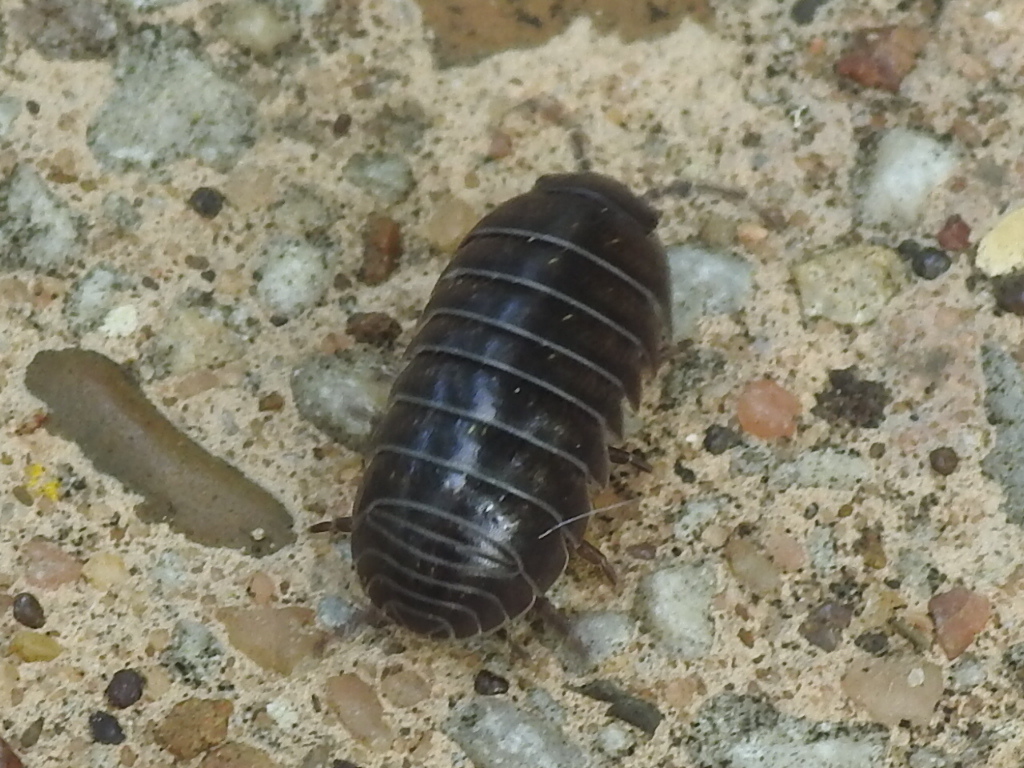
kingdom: Animalia
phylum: Arthropoda
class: Malacostraca
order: Isopoda
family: Armadillidiidae
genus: Armadillidium
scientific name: Armadillidium vulgare
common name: Common pill woodlouse
